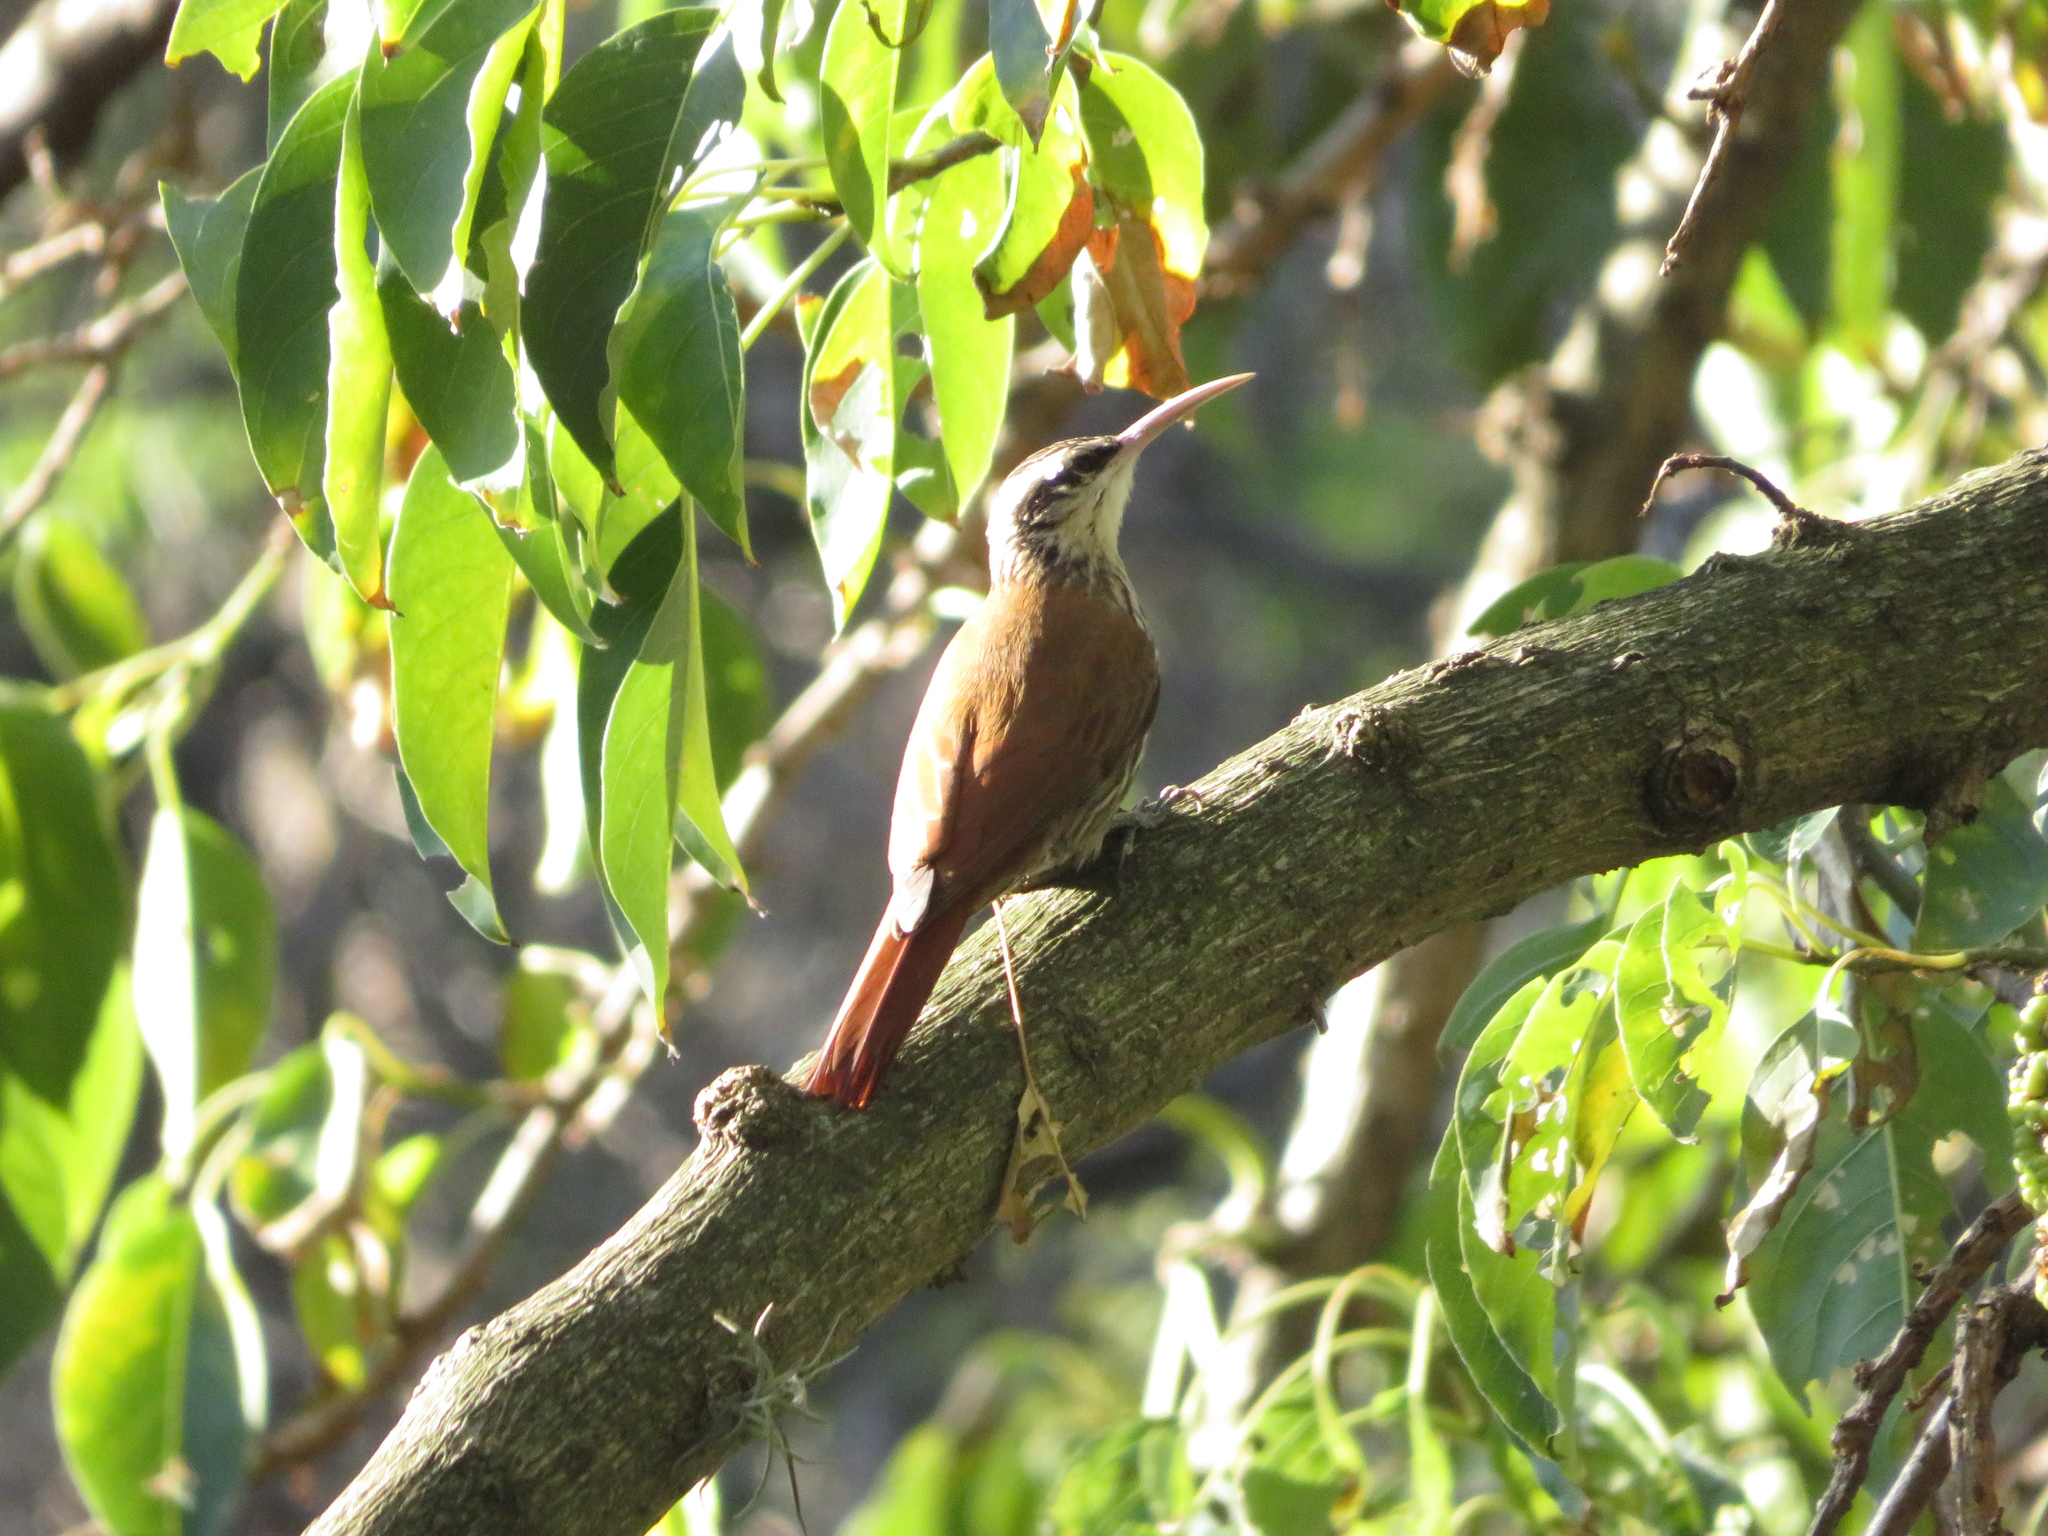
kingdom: Animalia
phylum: Chordata
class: Aves
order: Passeriformes
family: Furnariidae
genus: Lepidocolaptes
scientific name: Lepidocolaptes angustirostris
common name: Narrow-billed woodcreeper
